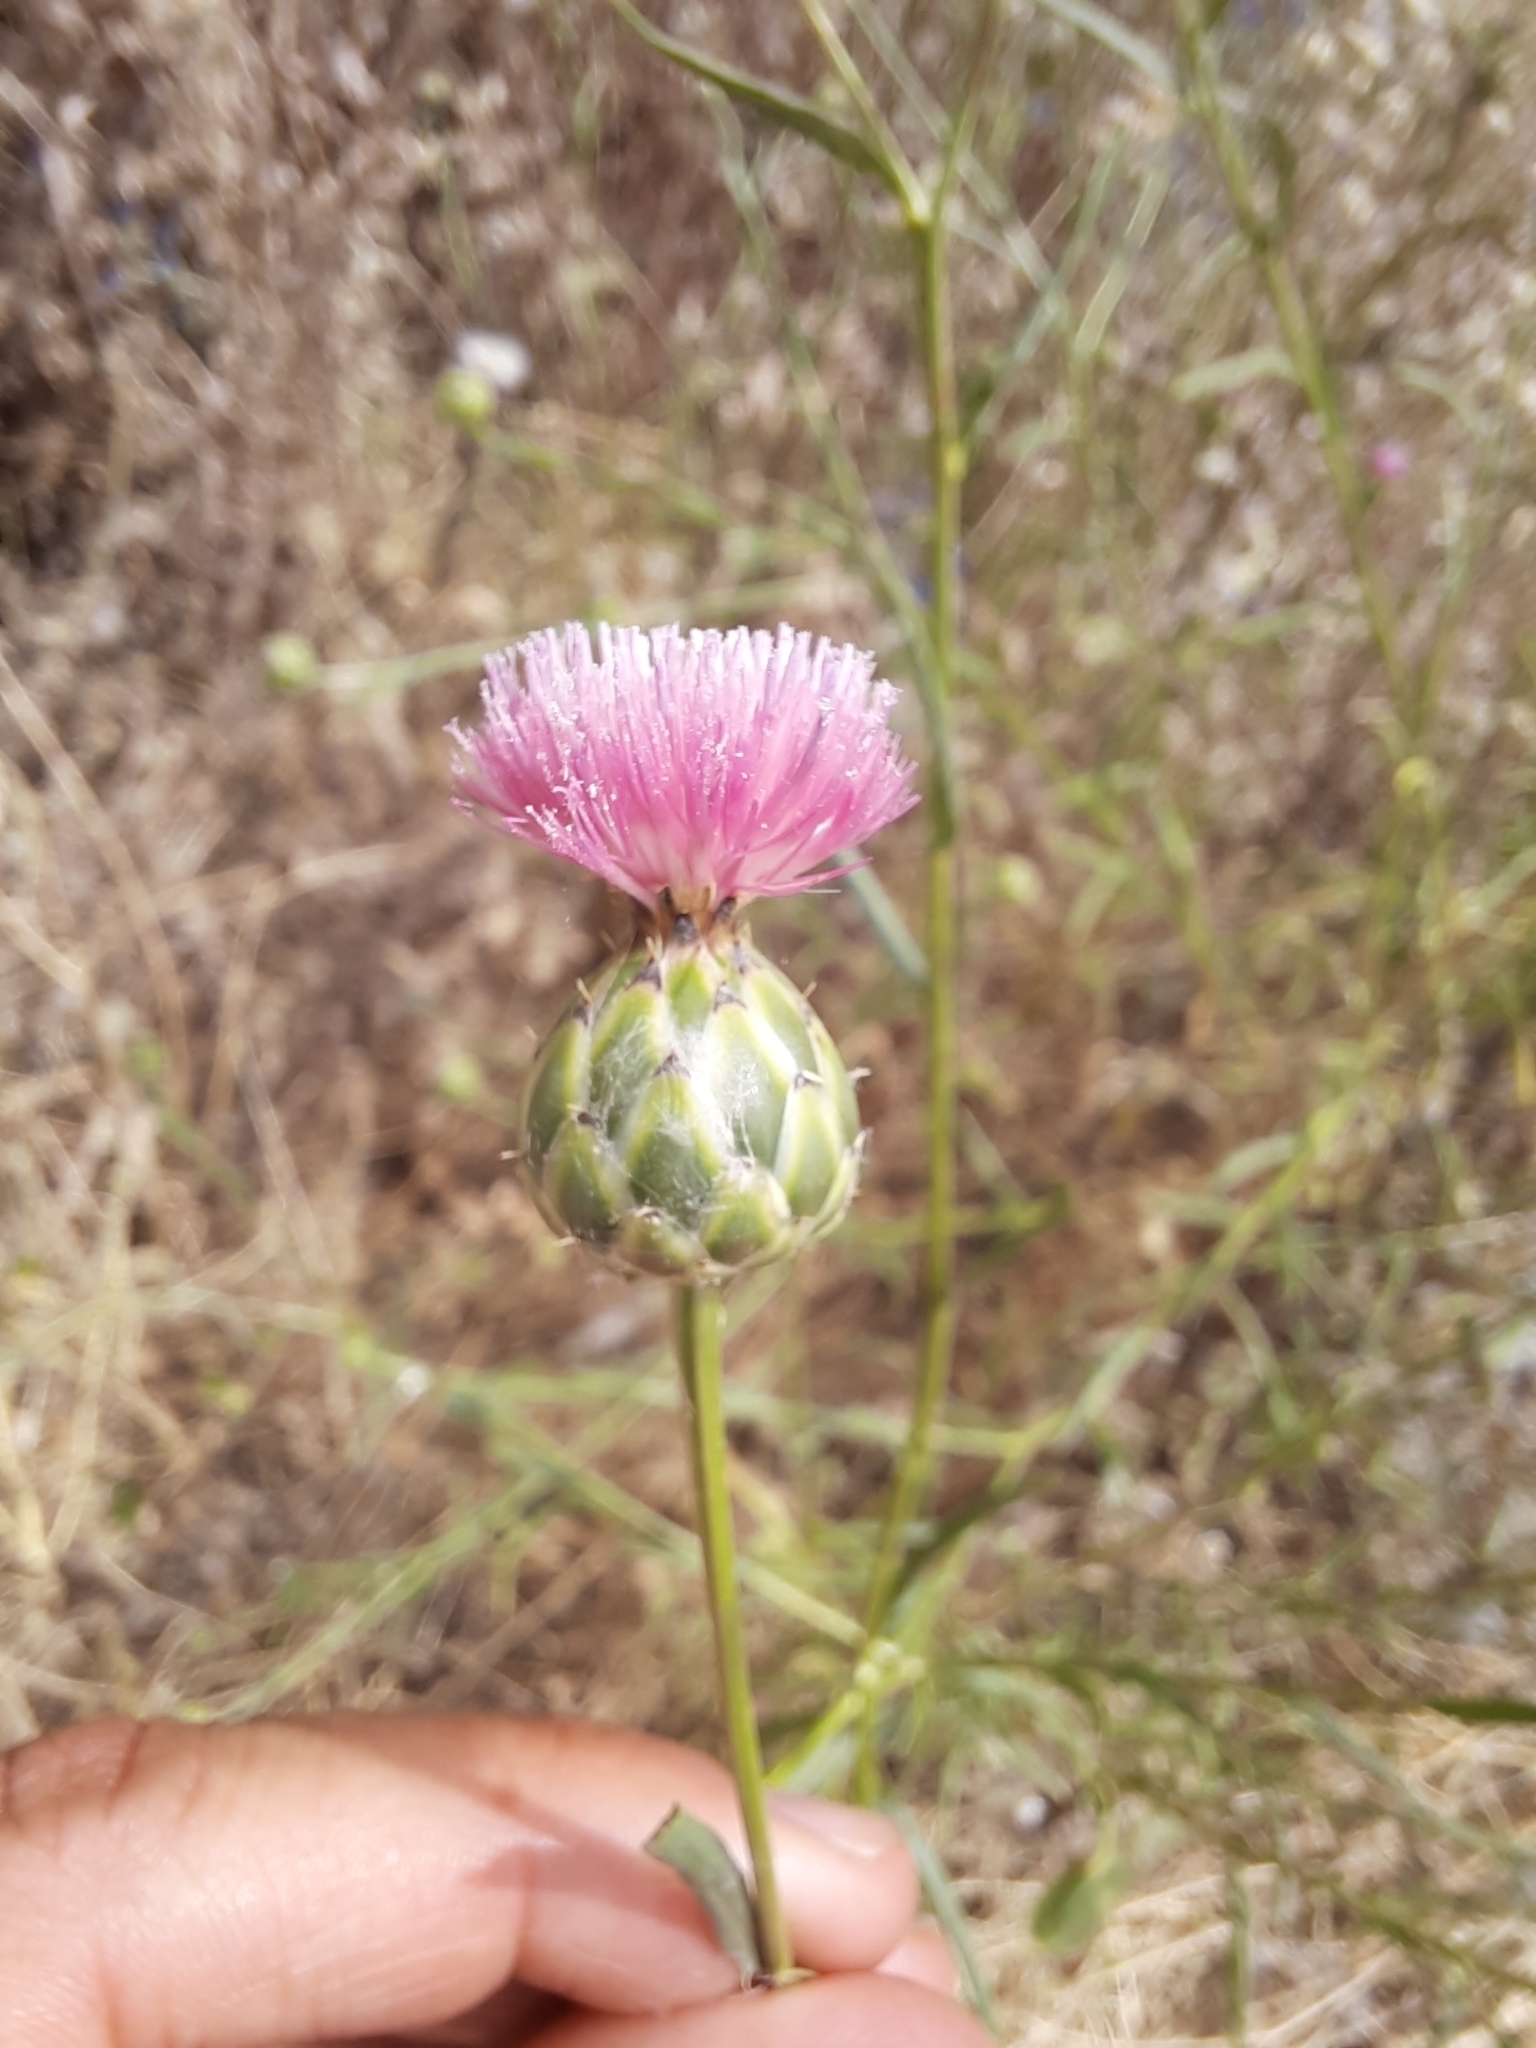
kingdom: Plantae
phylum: Tracheophyta
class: Magnoliopsida
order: Asterales
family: Asteraceae
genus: Mantisalca
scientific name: Mantisalca salmantica
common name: Dagger flower
